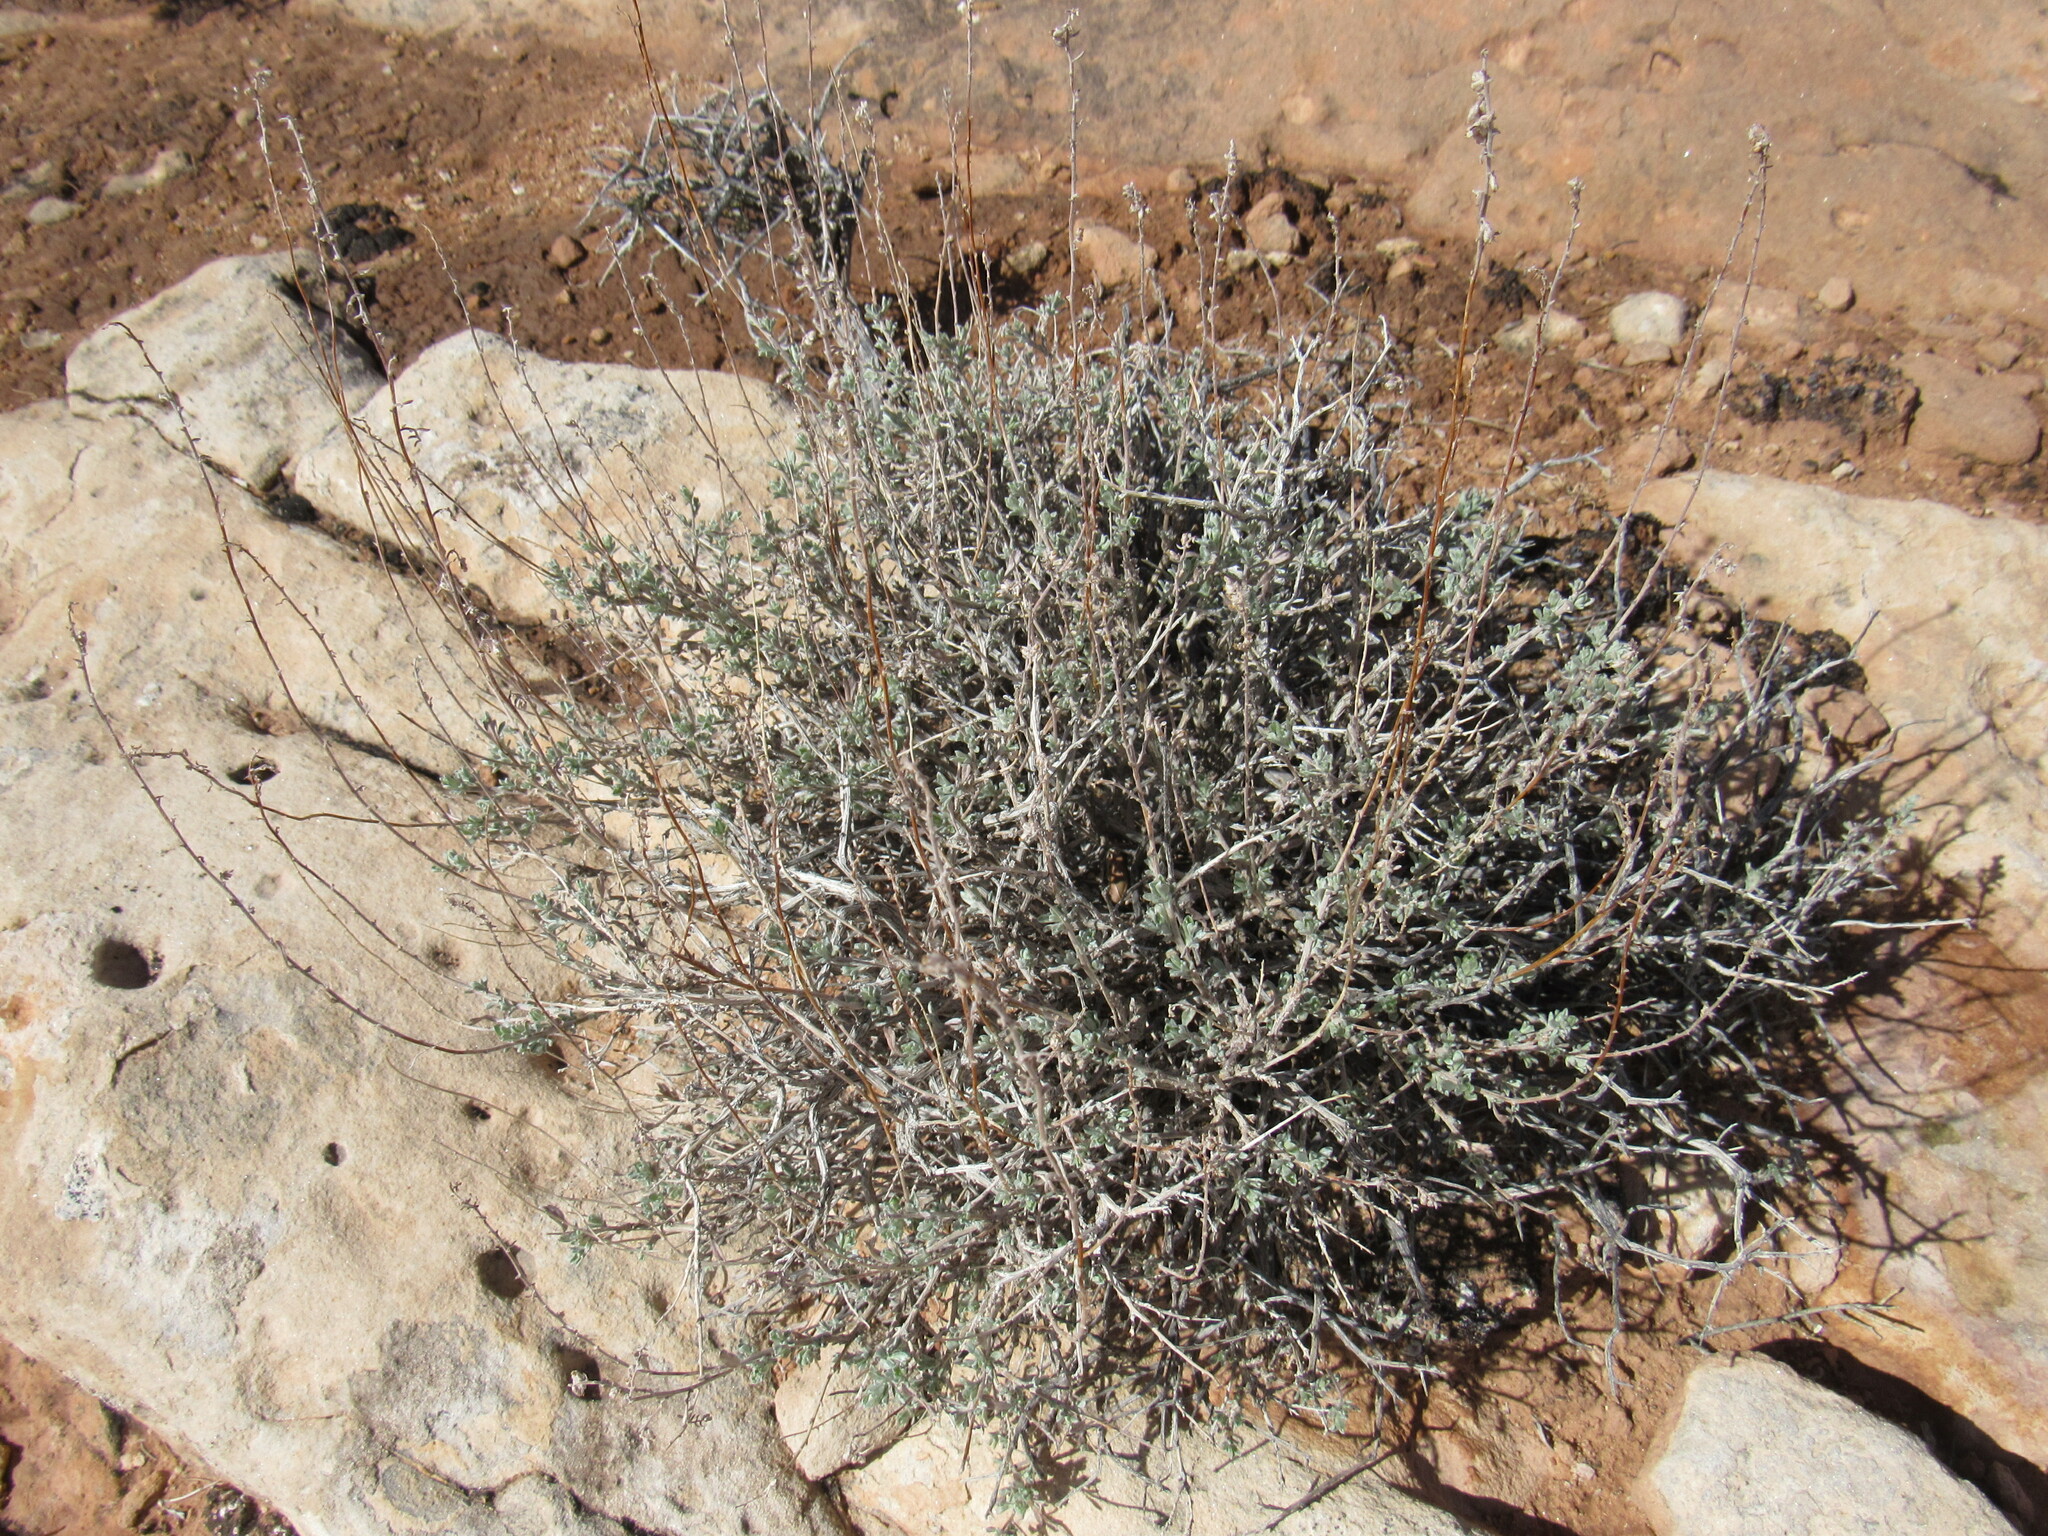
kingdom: Plantae
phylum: Tracheophyta
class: Magnoliopsida
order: Asterales
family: Asteraceae
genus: Artemisia
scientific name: Artemisia bigelovii
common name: Bigelow sagebrush
